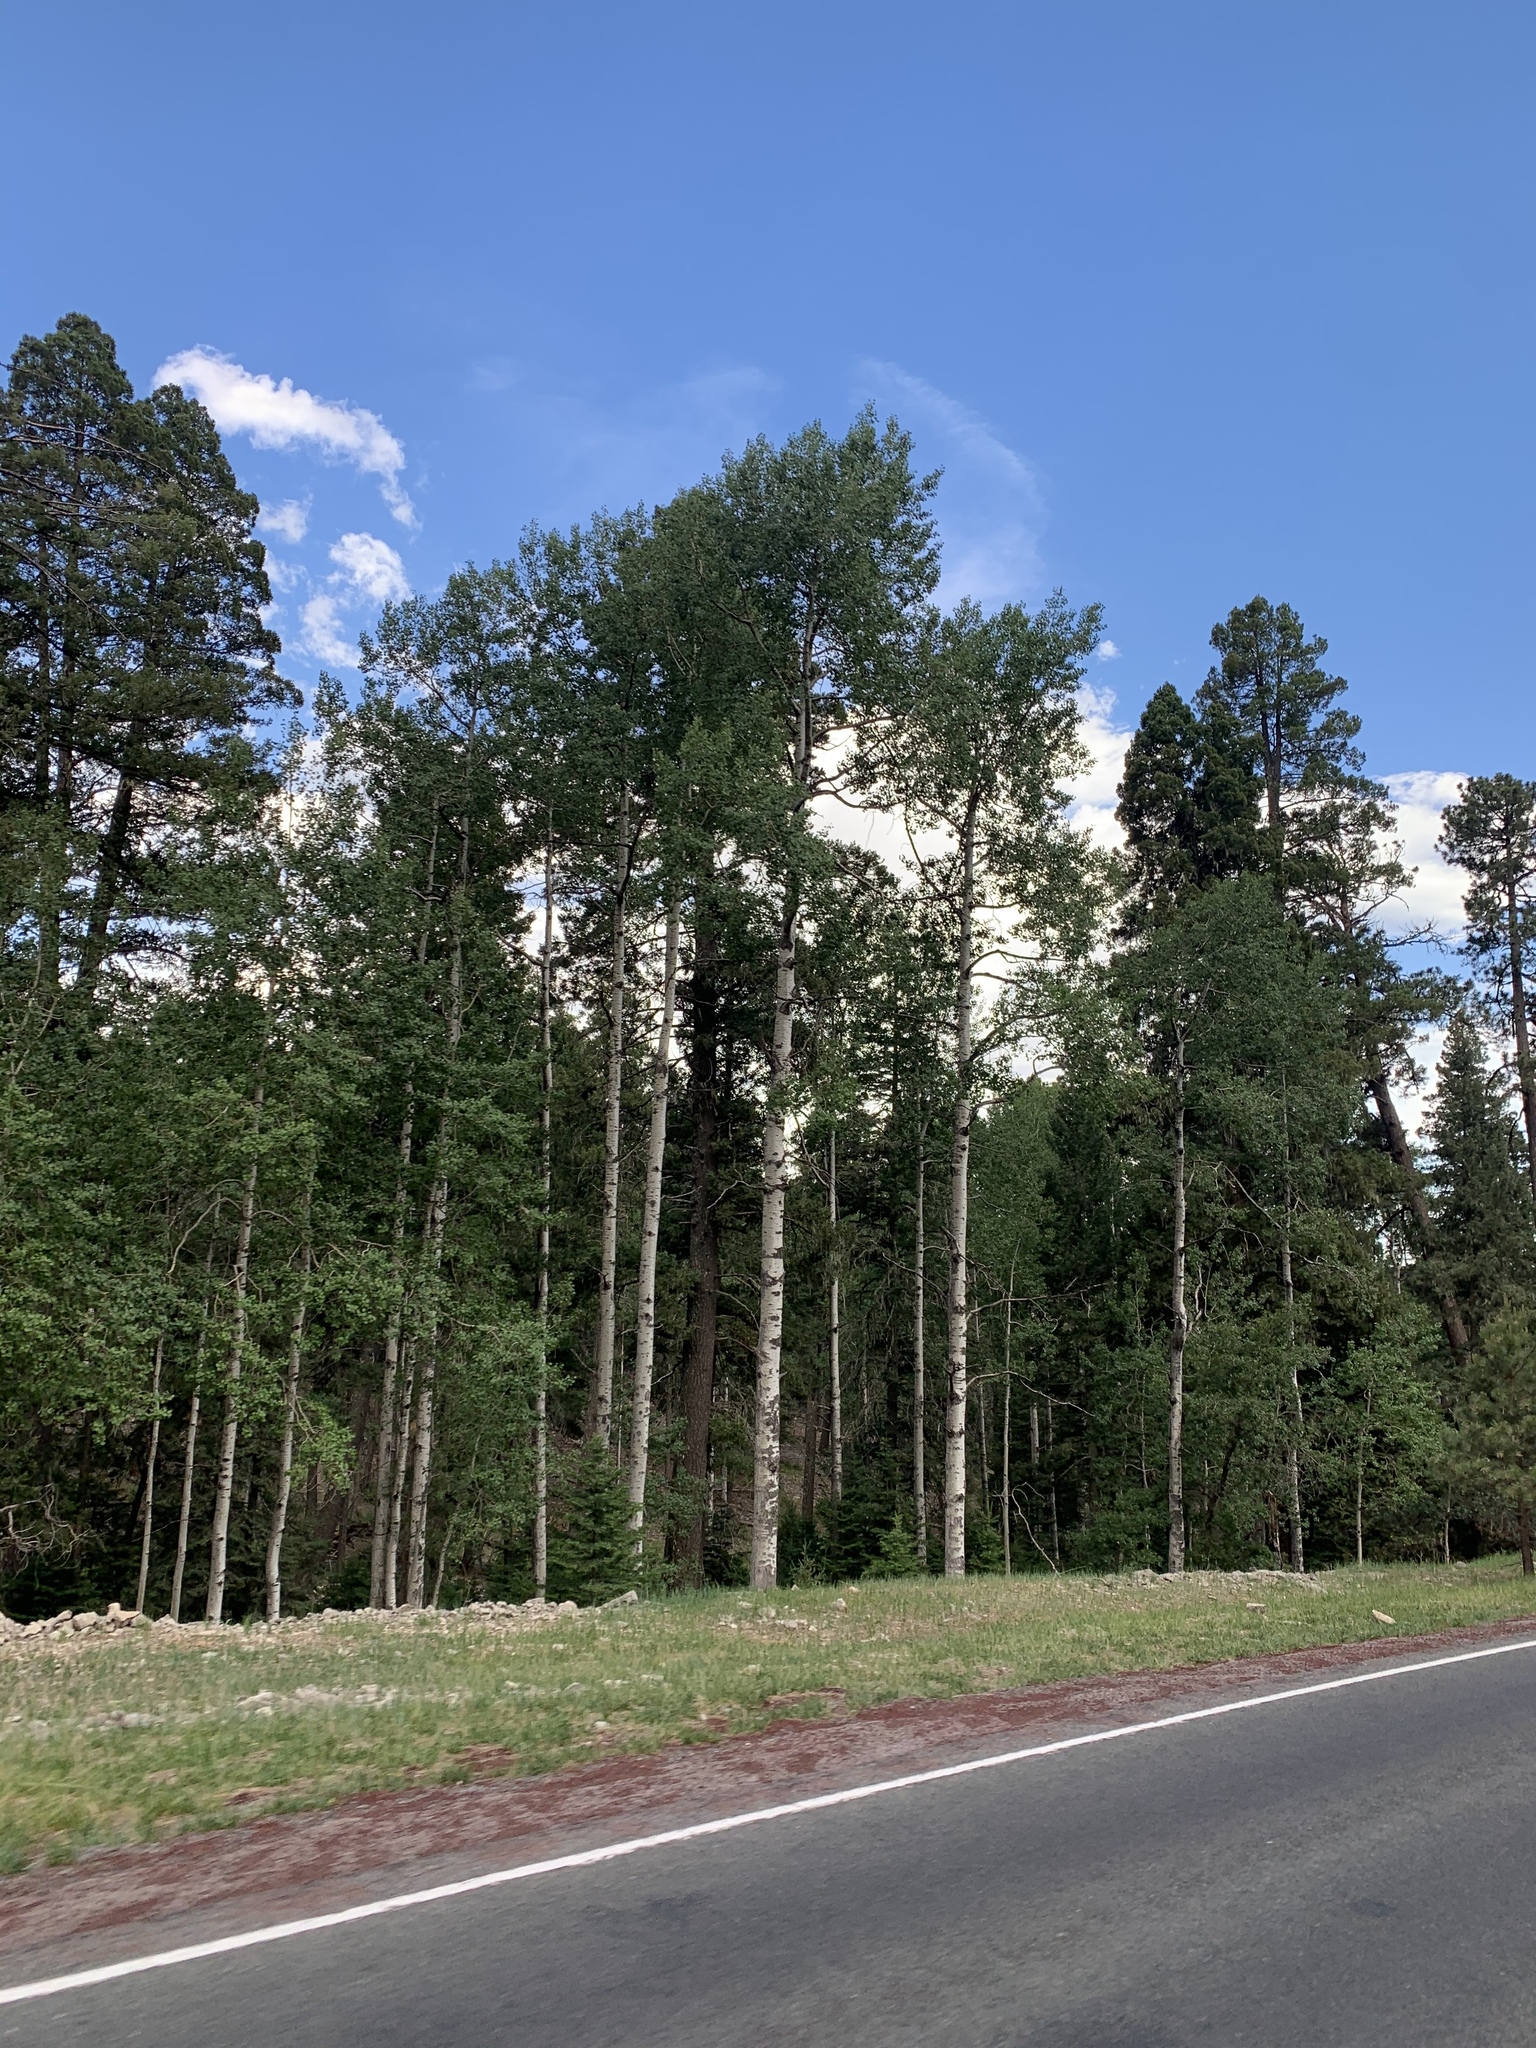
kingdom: Plantae
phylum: Tracheophyta
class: Magnoliopsida
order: Malpighiales
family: Salicaceae
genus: Populus
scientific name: Populus tremuloides
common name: Quaking aspen
